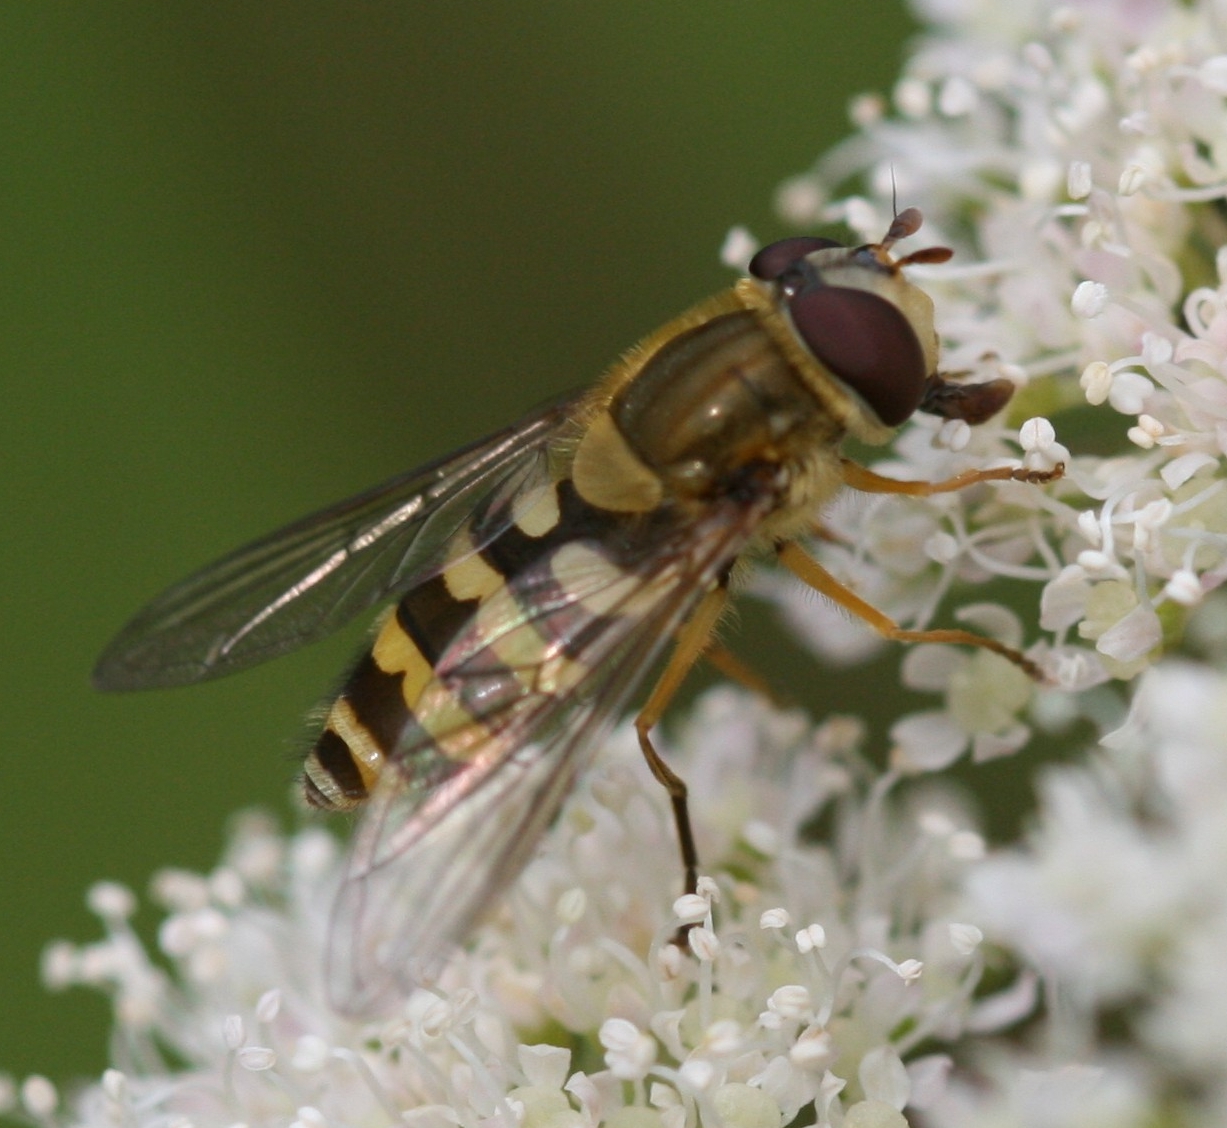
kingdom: Animalia
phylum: Arthropoda
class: Insecta
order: Diptera
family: Syrphidae
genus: Syrphus
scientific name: Syrphus ribesii
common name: Common flower fly
